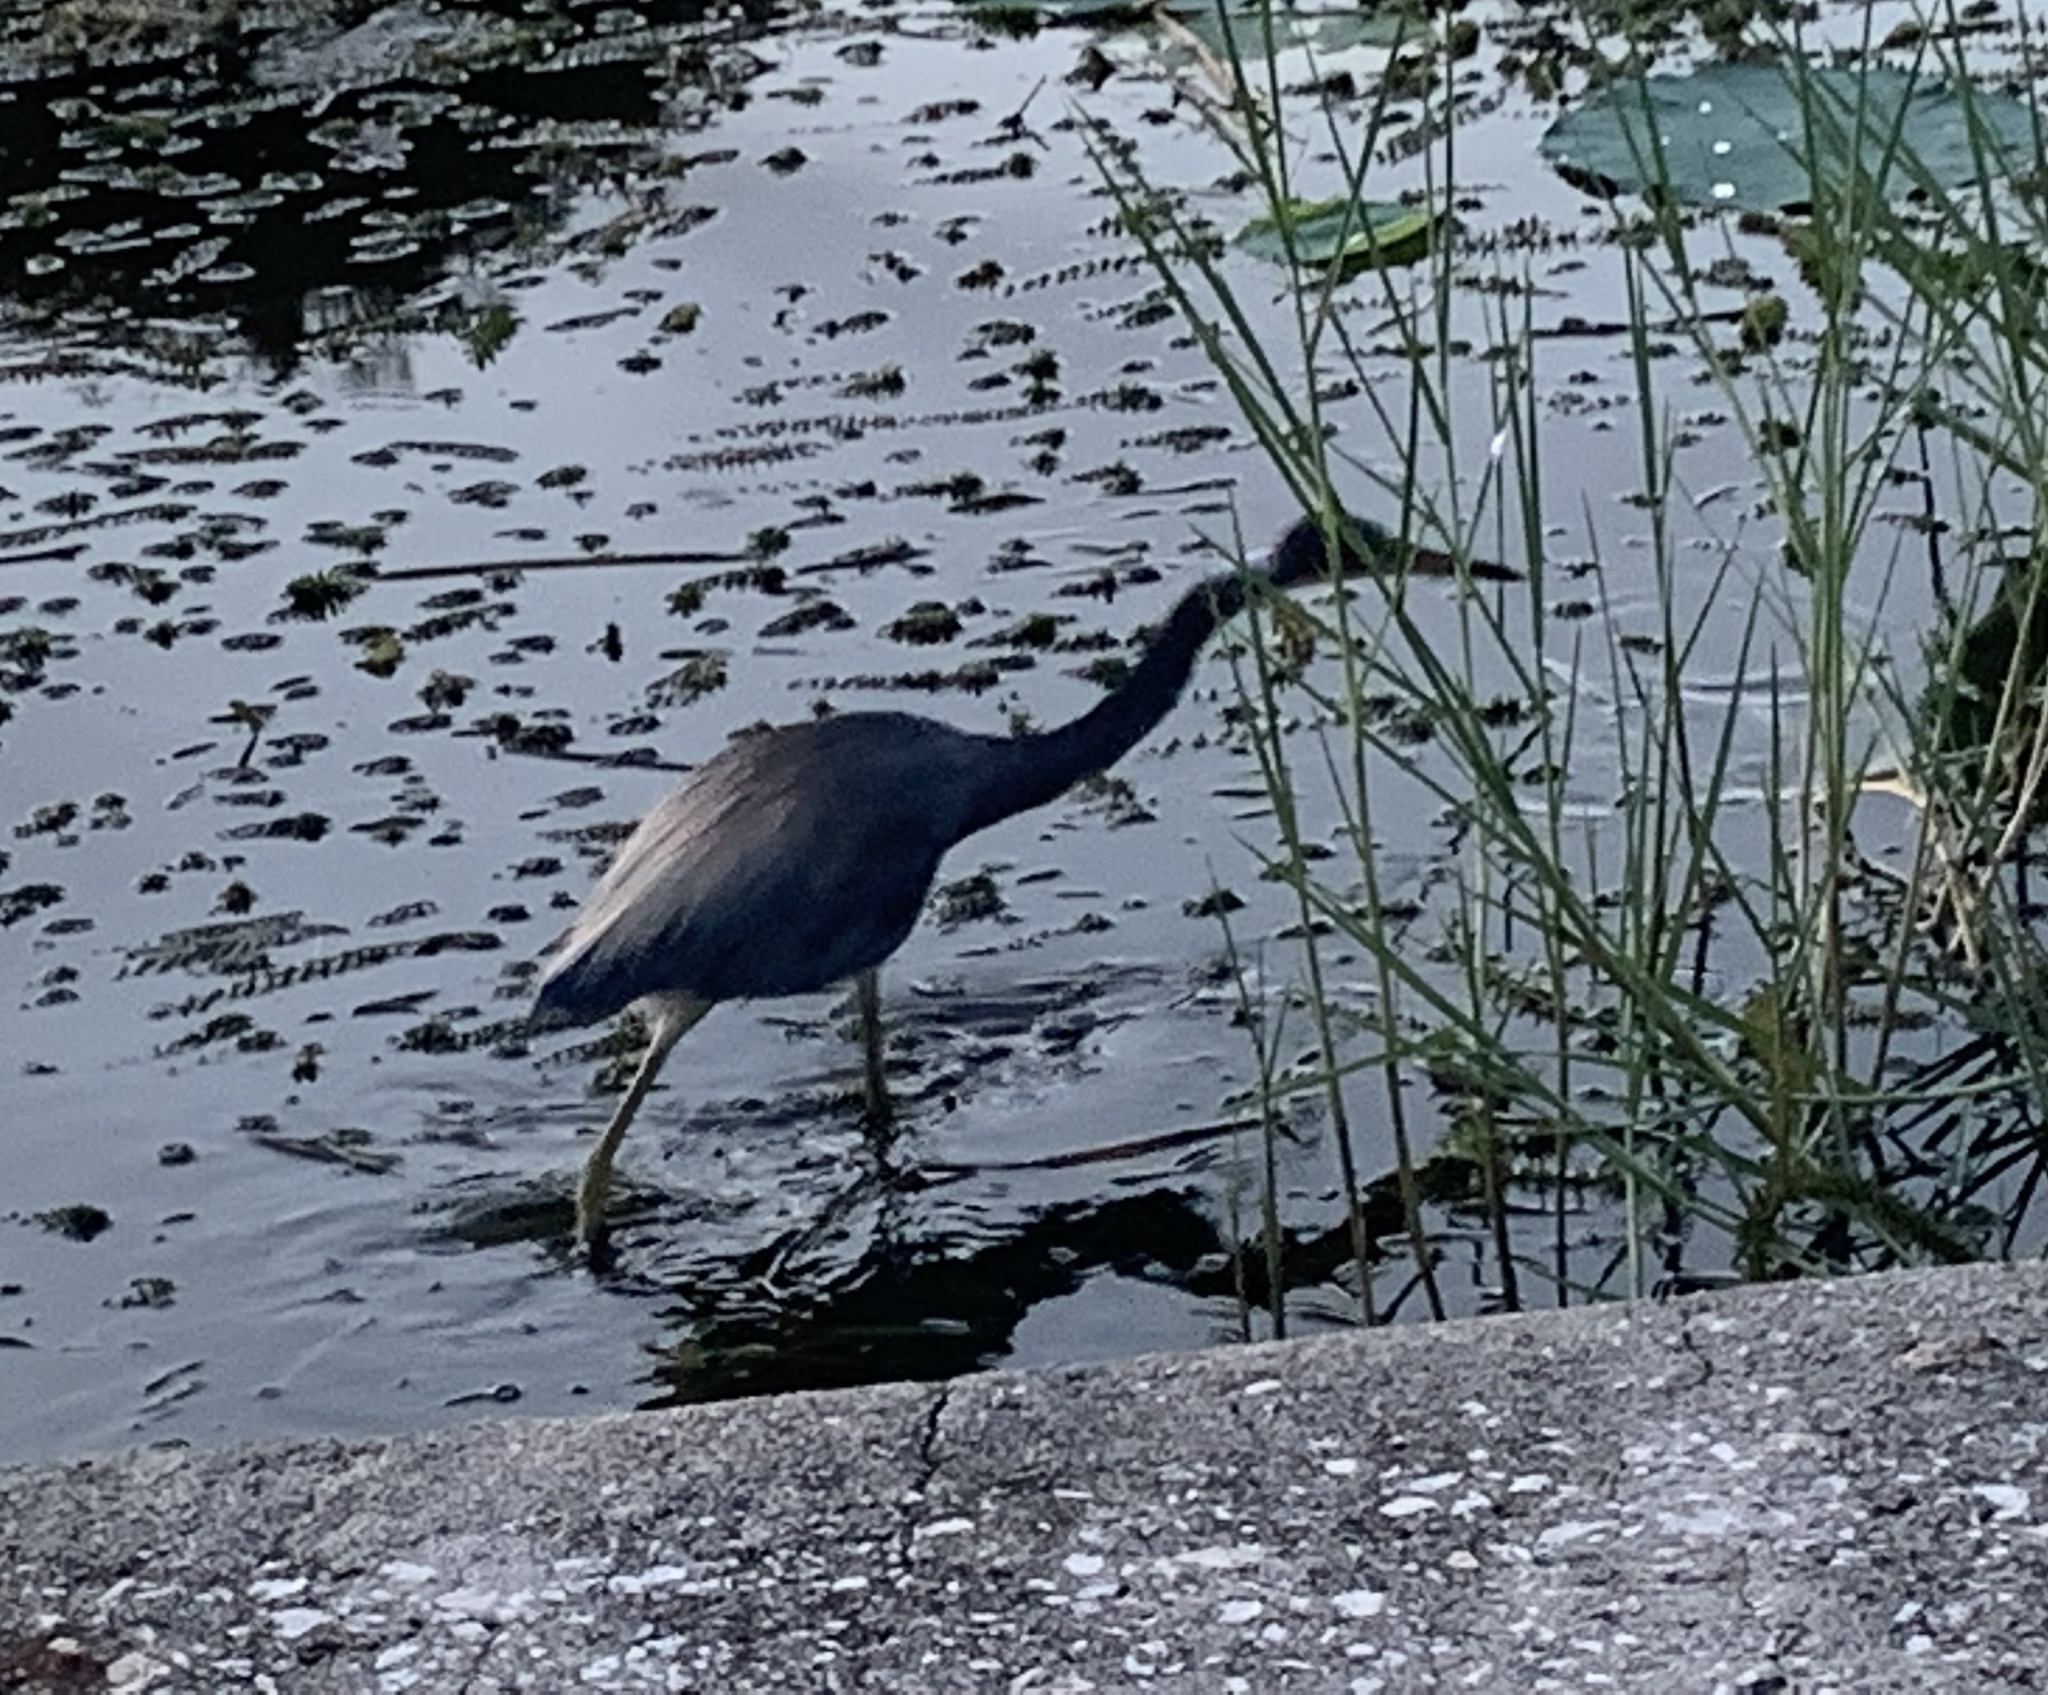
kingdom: Animalia
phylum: Chordata
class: Aves
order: Pelecaniformes
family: Ardeidae
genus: Egretta
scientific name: Egretta tricolor
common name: Tricolored heron
